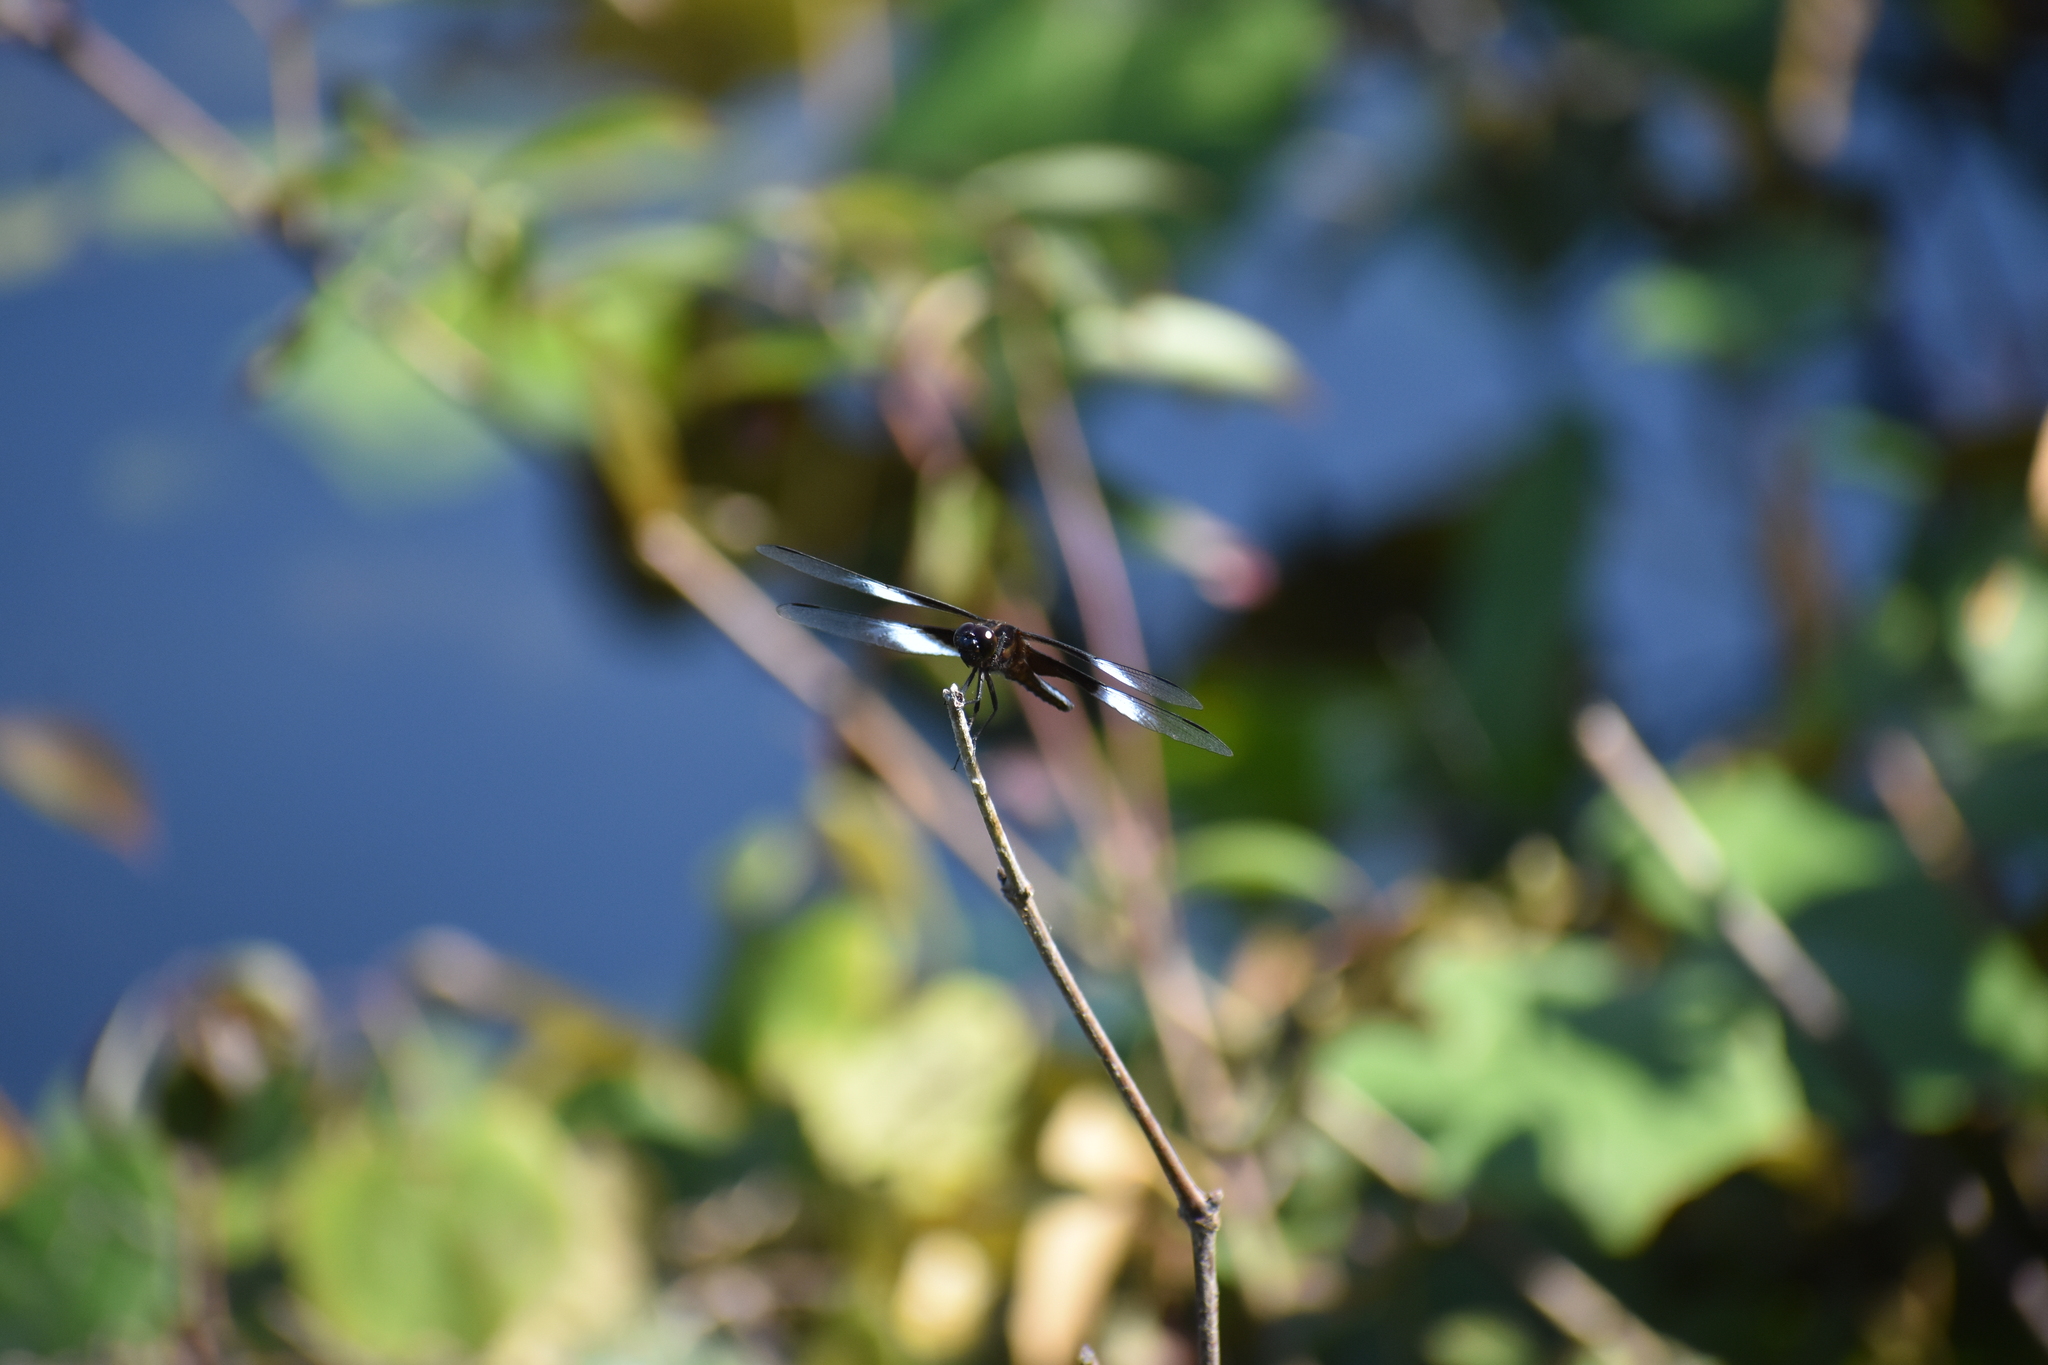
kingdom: Animalia
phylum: Arthropoda
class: Insecta
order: Odonata
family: Libellulidae
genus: Libellula
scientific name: Libellula luctuosa
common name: Widow skimmer
